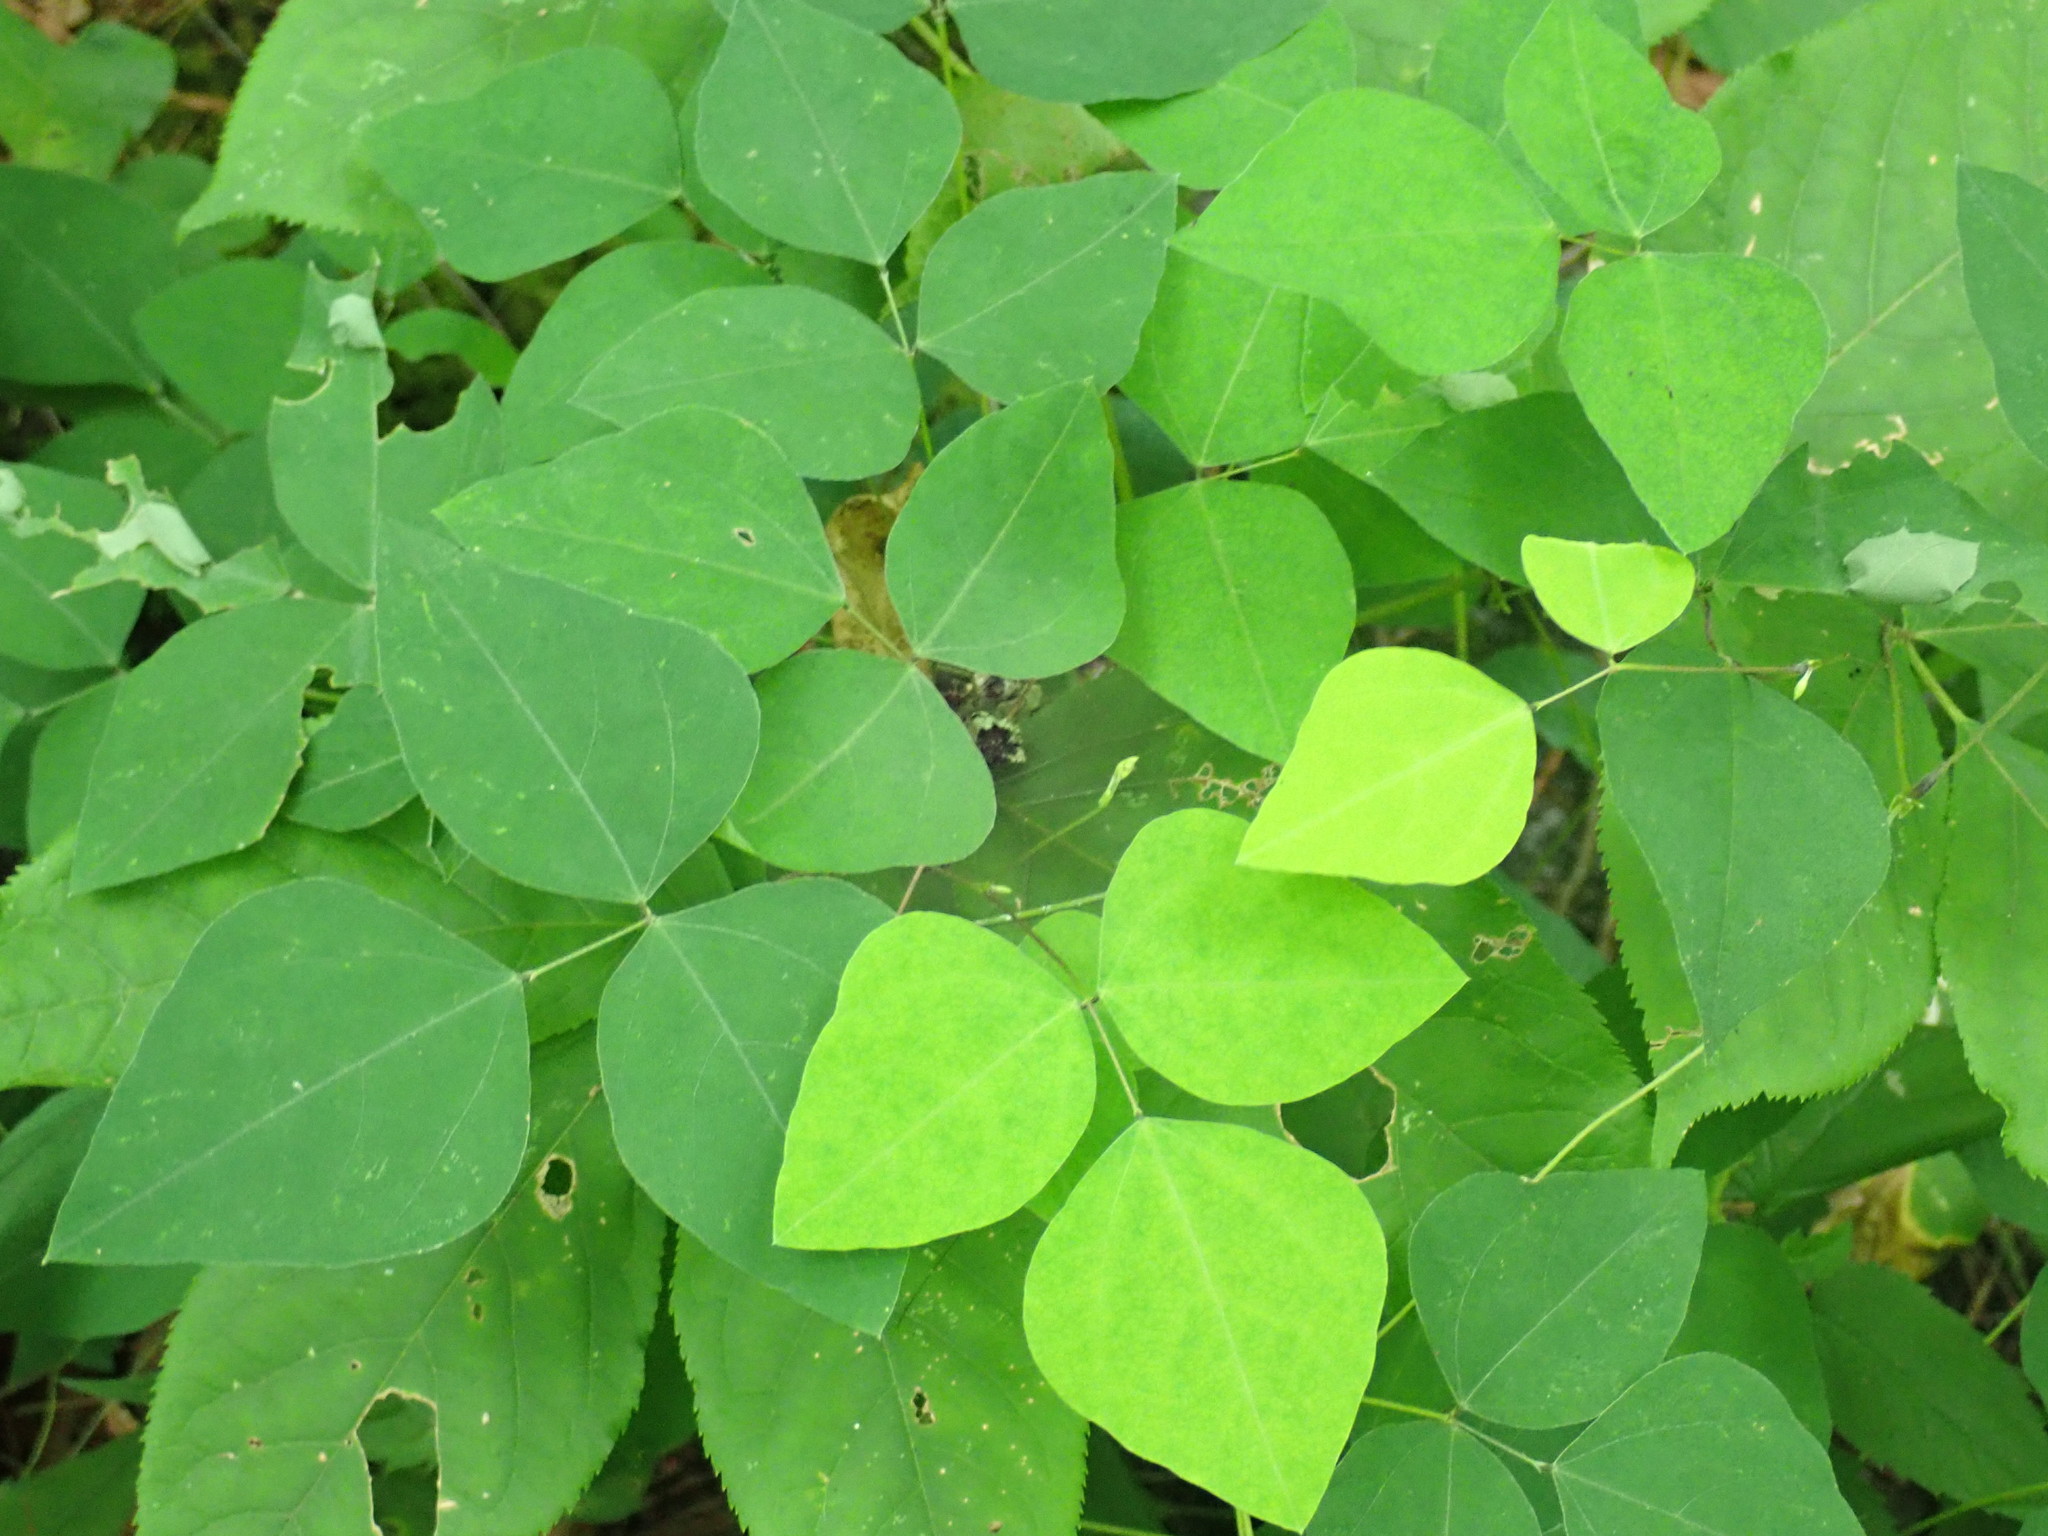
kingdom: Plantae
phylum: Tracheophyta
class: Magnoliopsida
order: Fabales
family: Fabaceae
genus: Amphicarpaea
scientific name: Amphicarpaea bracteata
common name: American hog peanut
